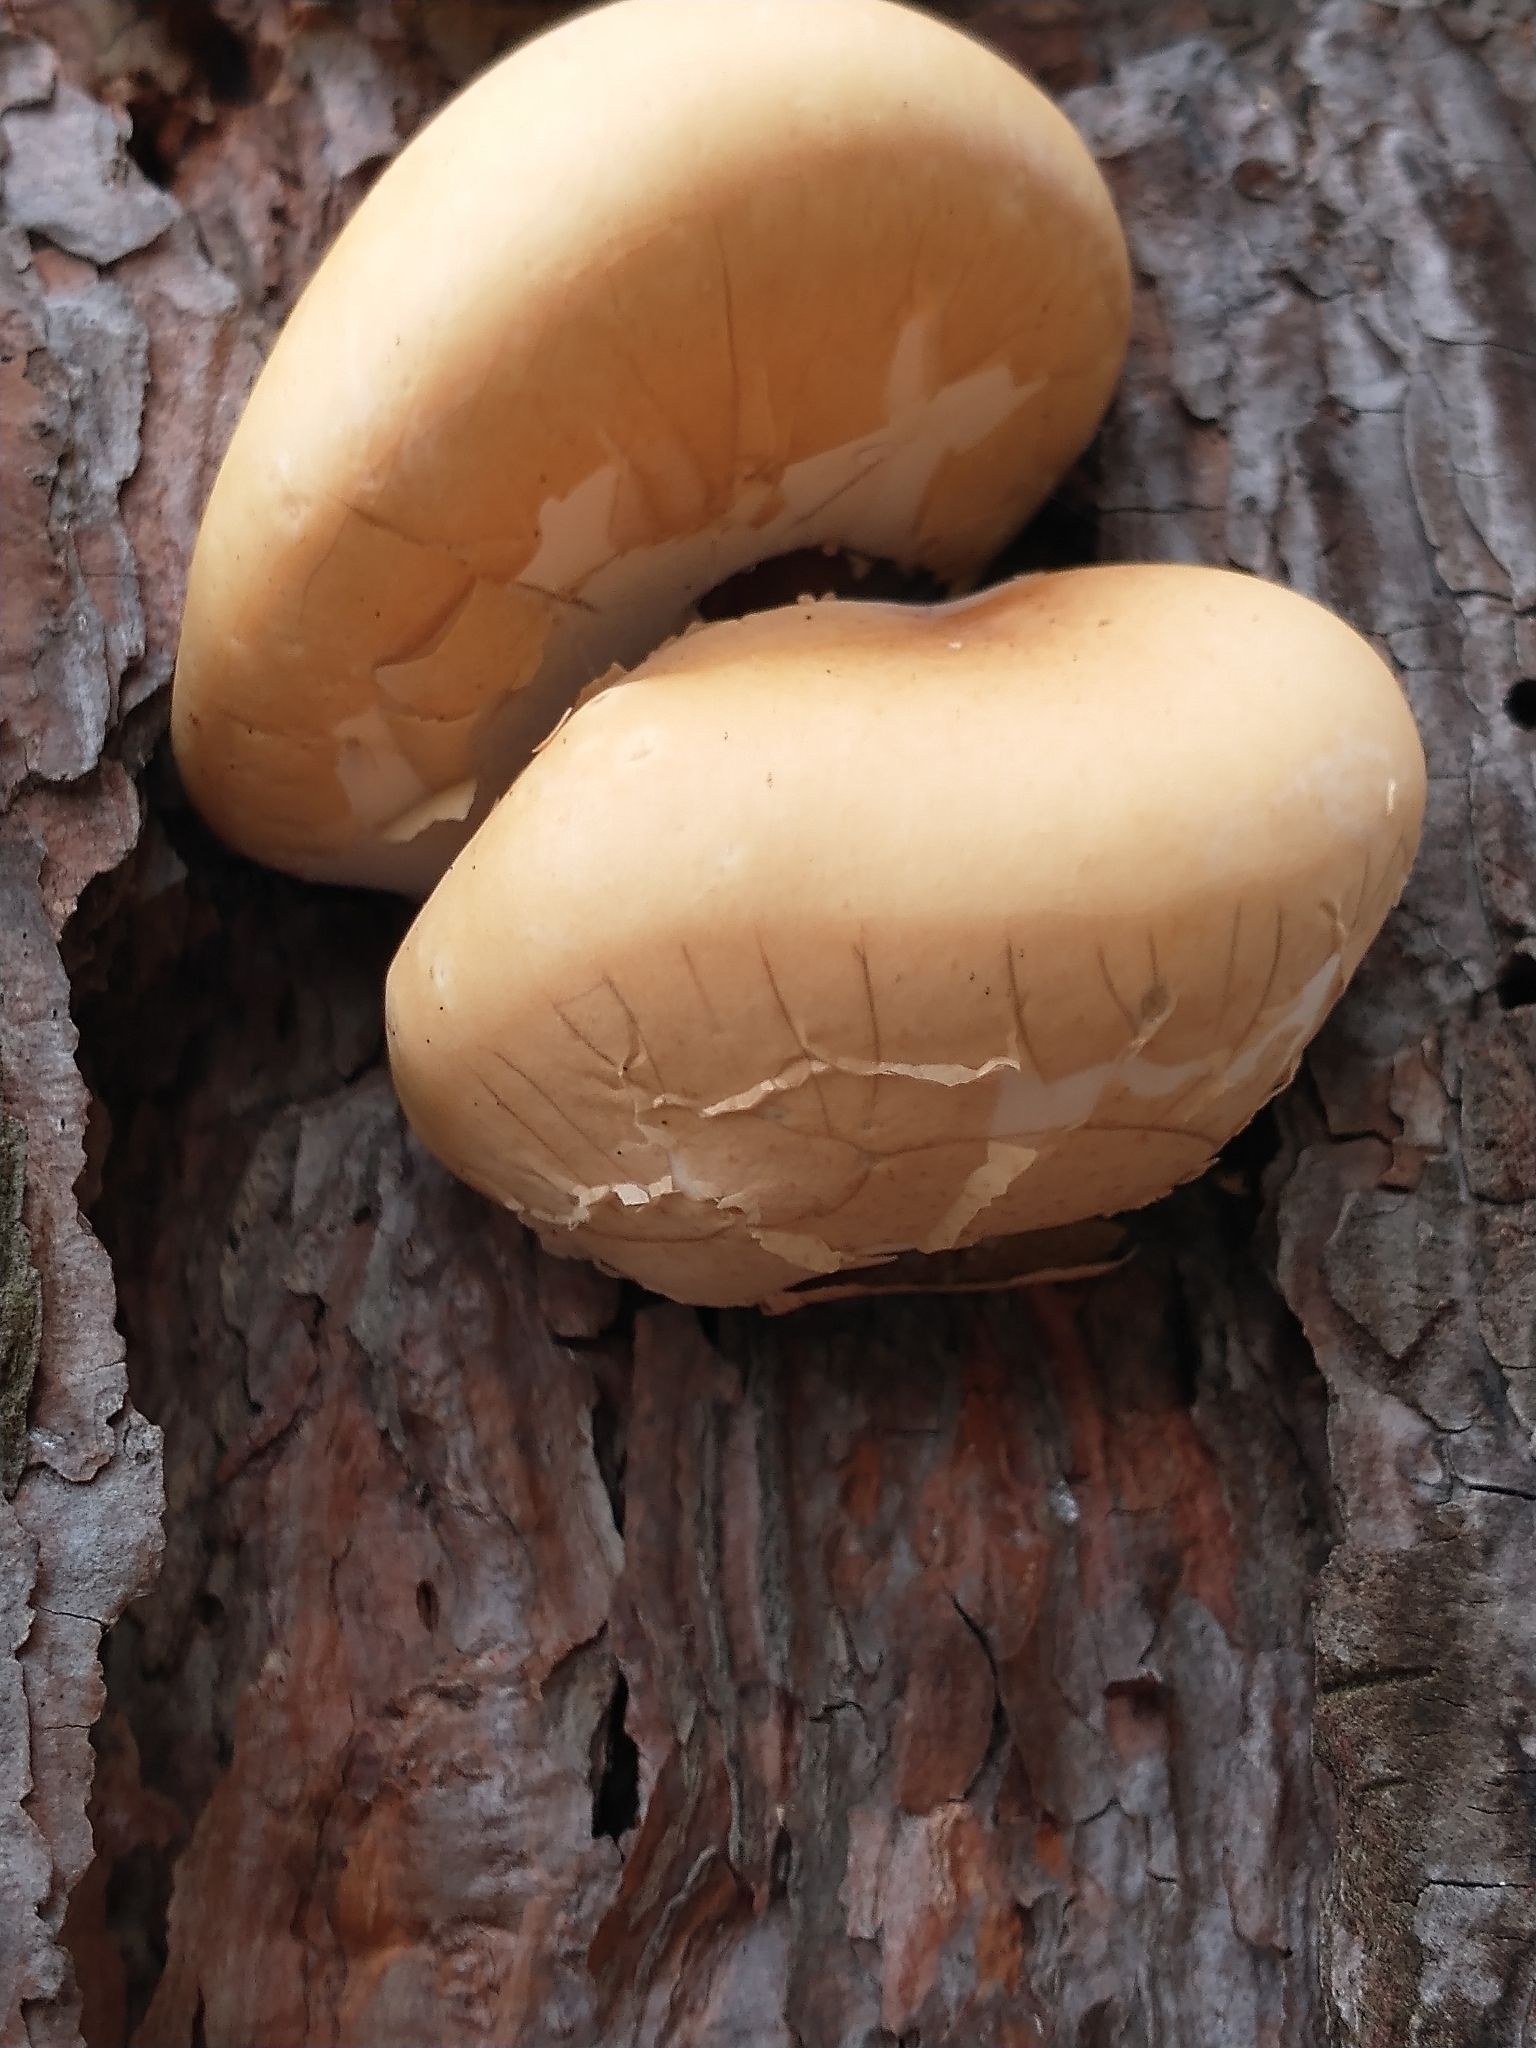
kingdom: Fungi
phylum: Basidiomycota
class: Agaricomycetes
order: Polyporales
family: Polyporaceae
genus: Cryptoporus
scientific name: Cryptoporus volvatus
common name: Veiled polypore
